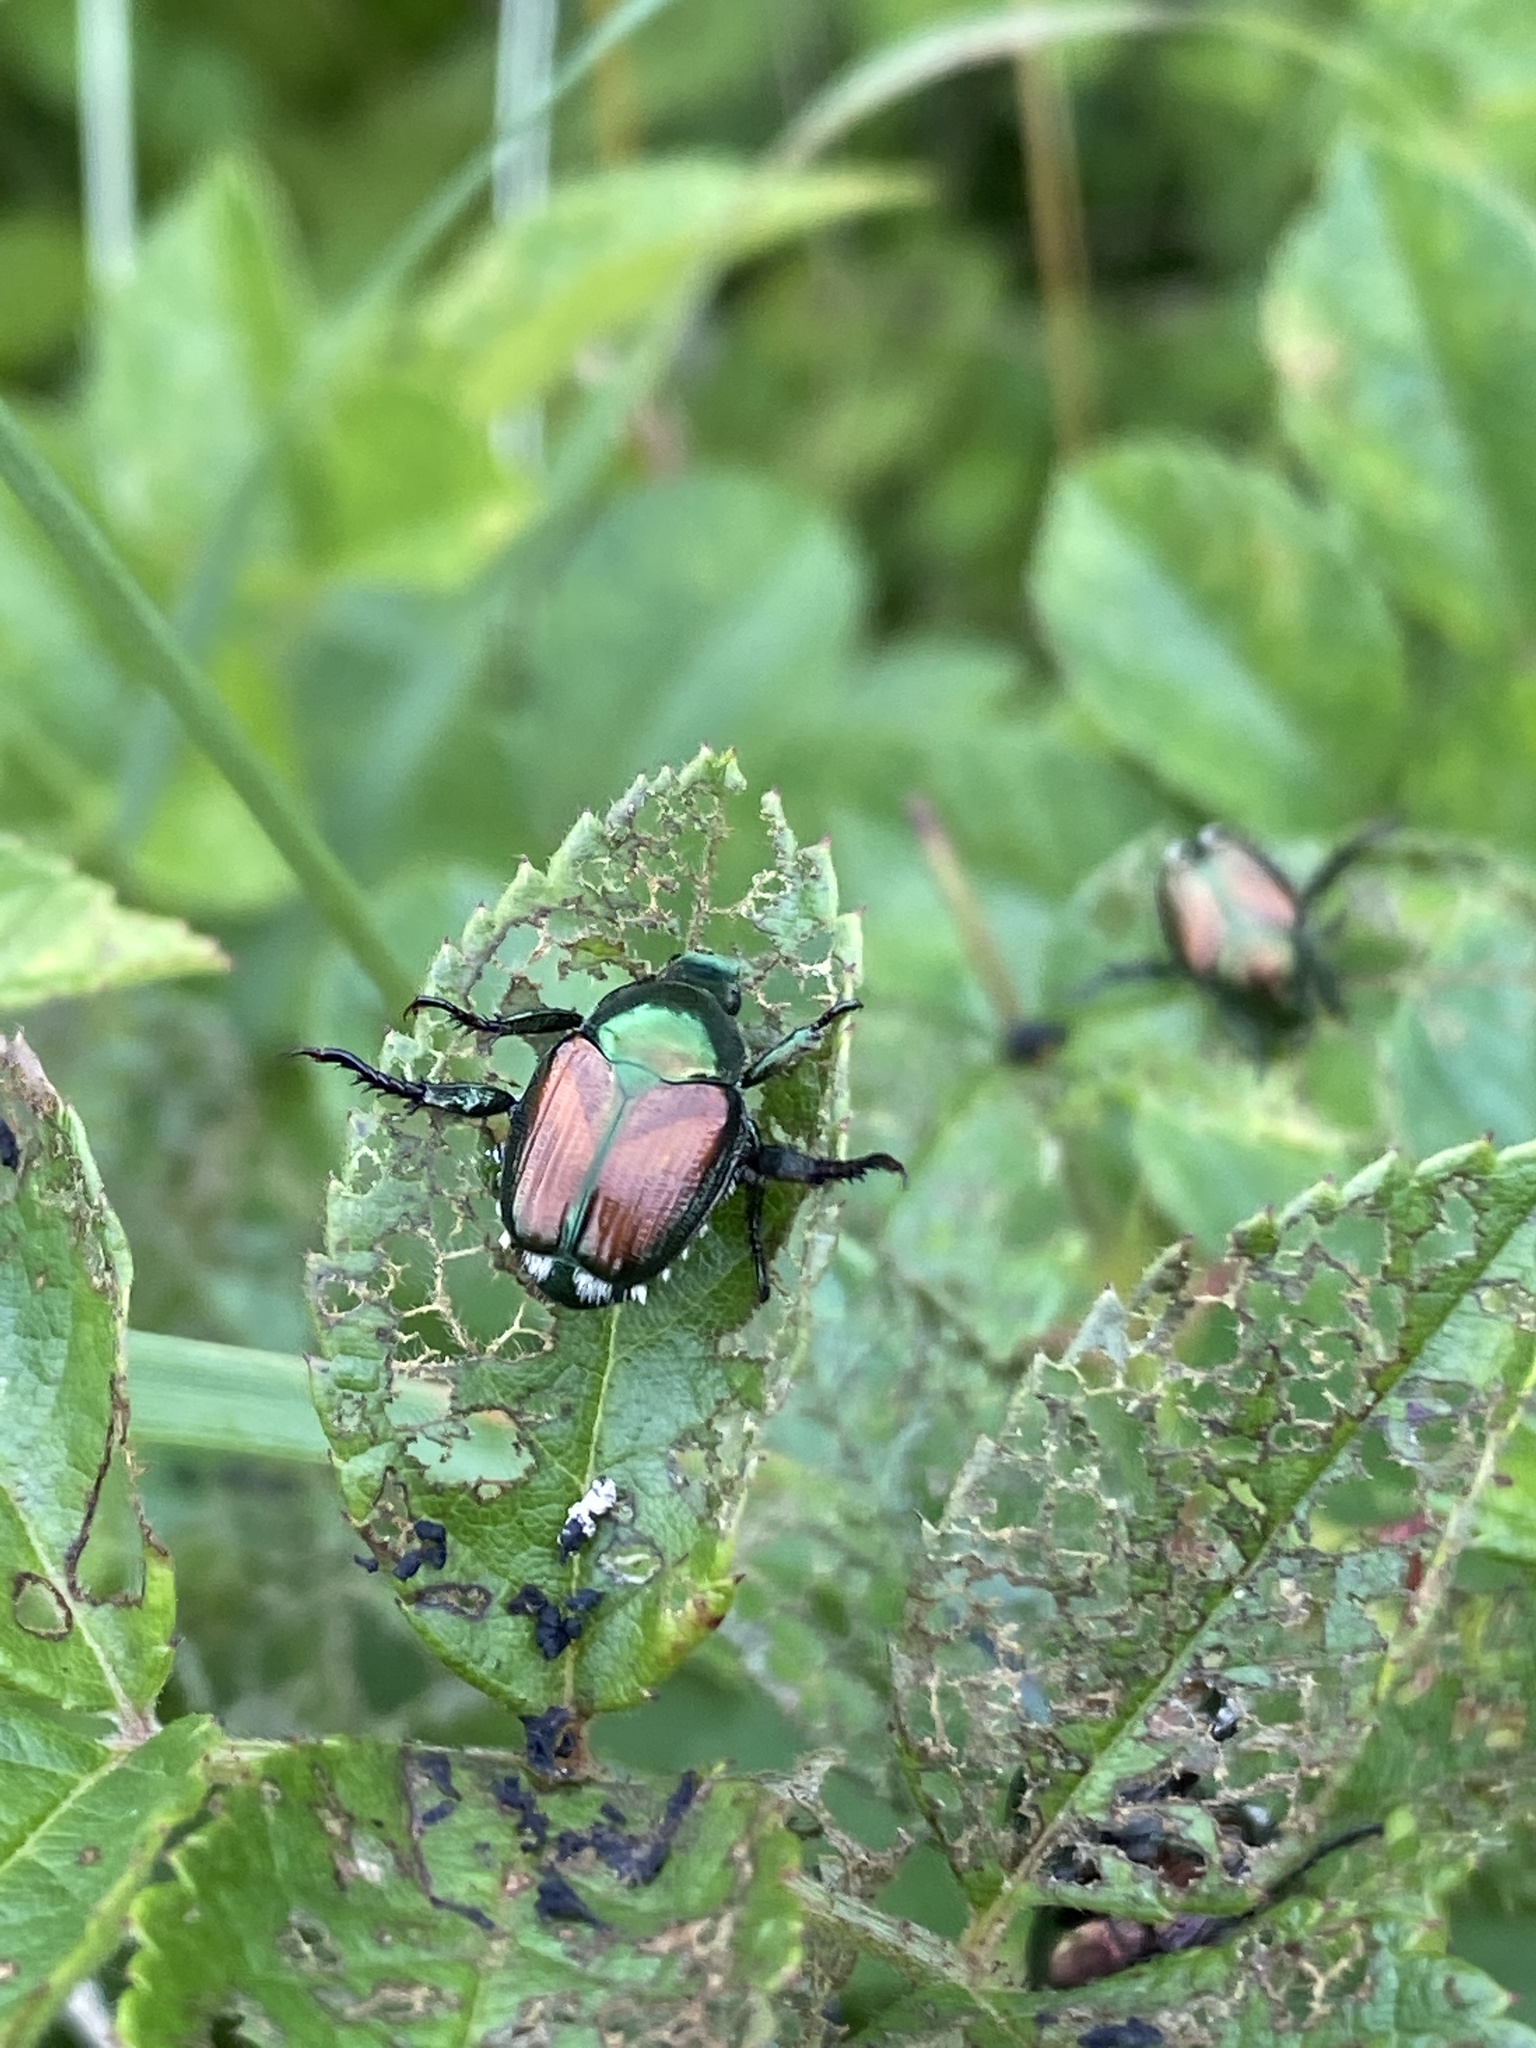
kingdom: Animalia
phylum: Arthropoda
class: Insecta
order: Coleoptera
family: Scarabaeidae
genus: Popillia
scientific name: Popillia japonica
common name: Japanese beetle
